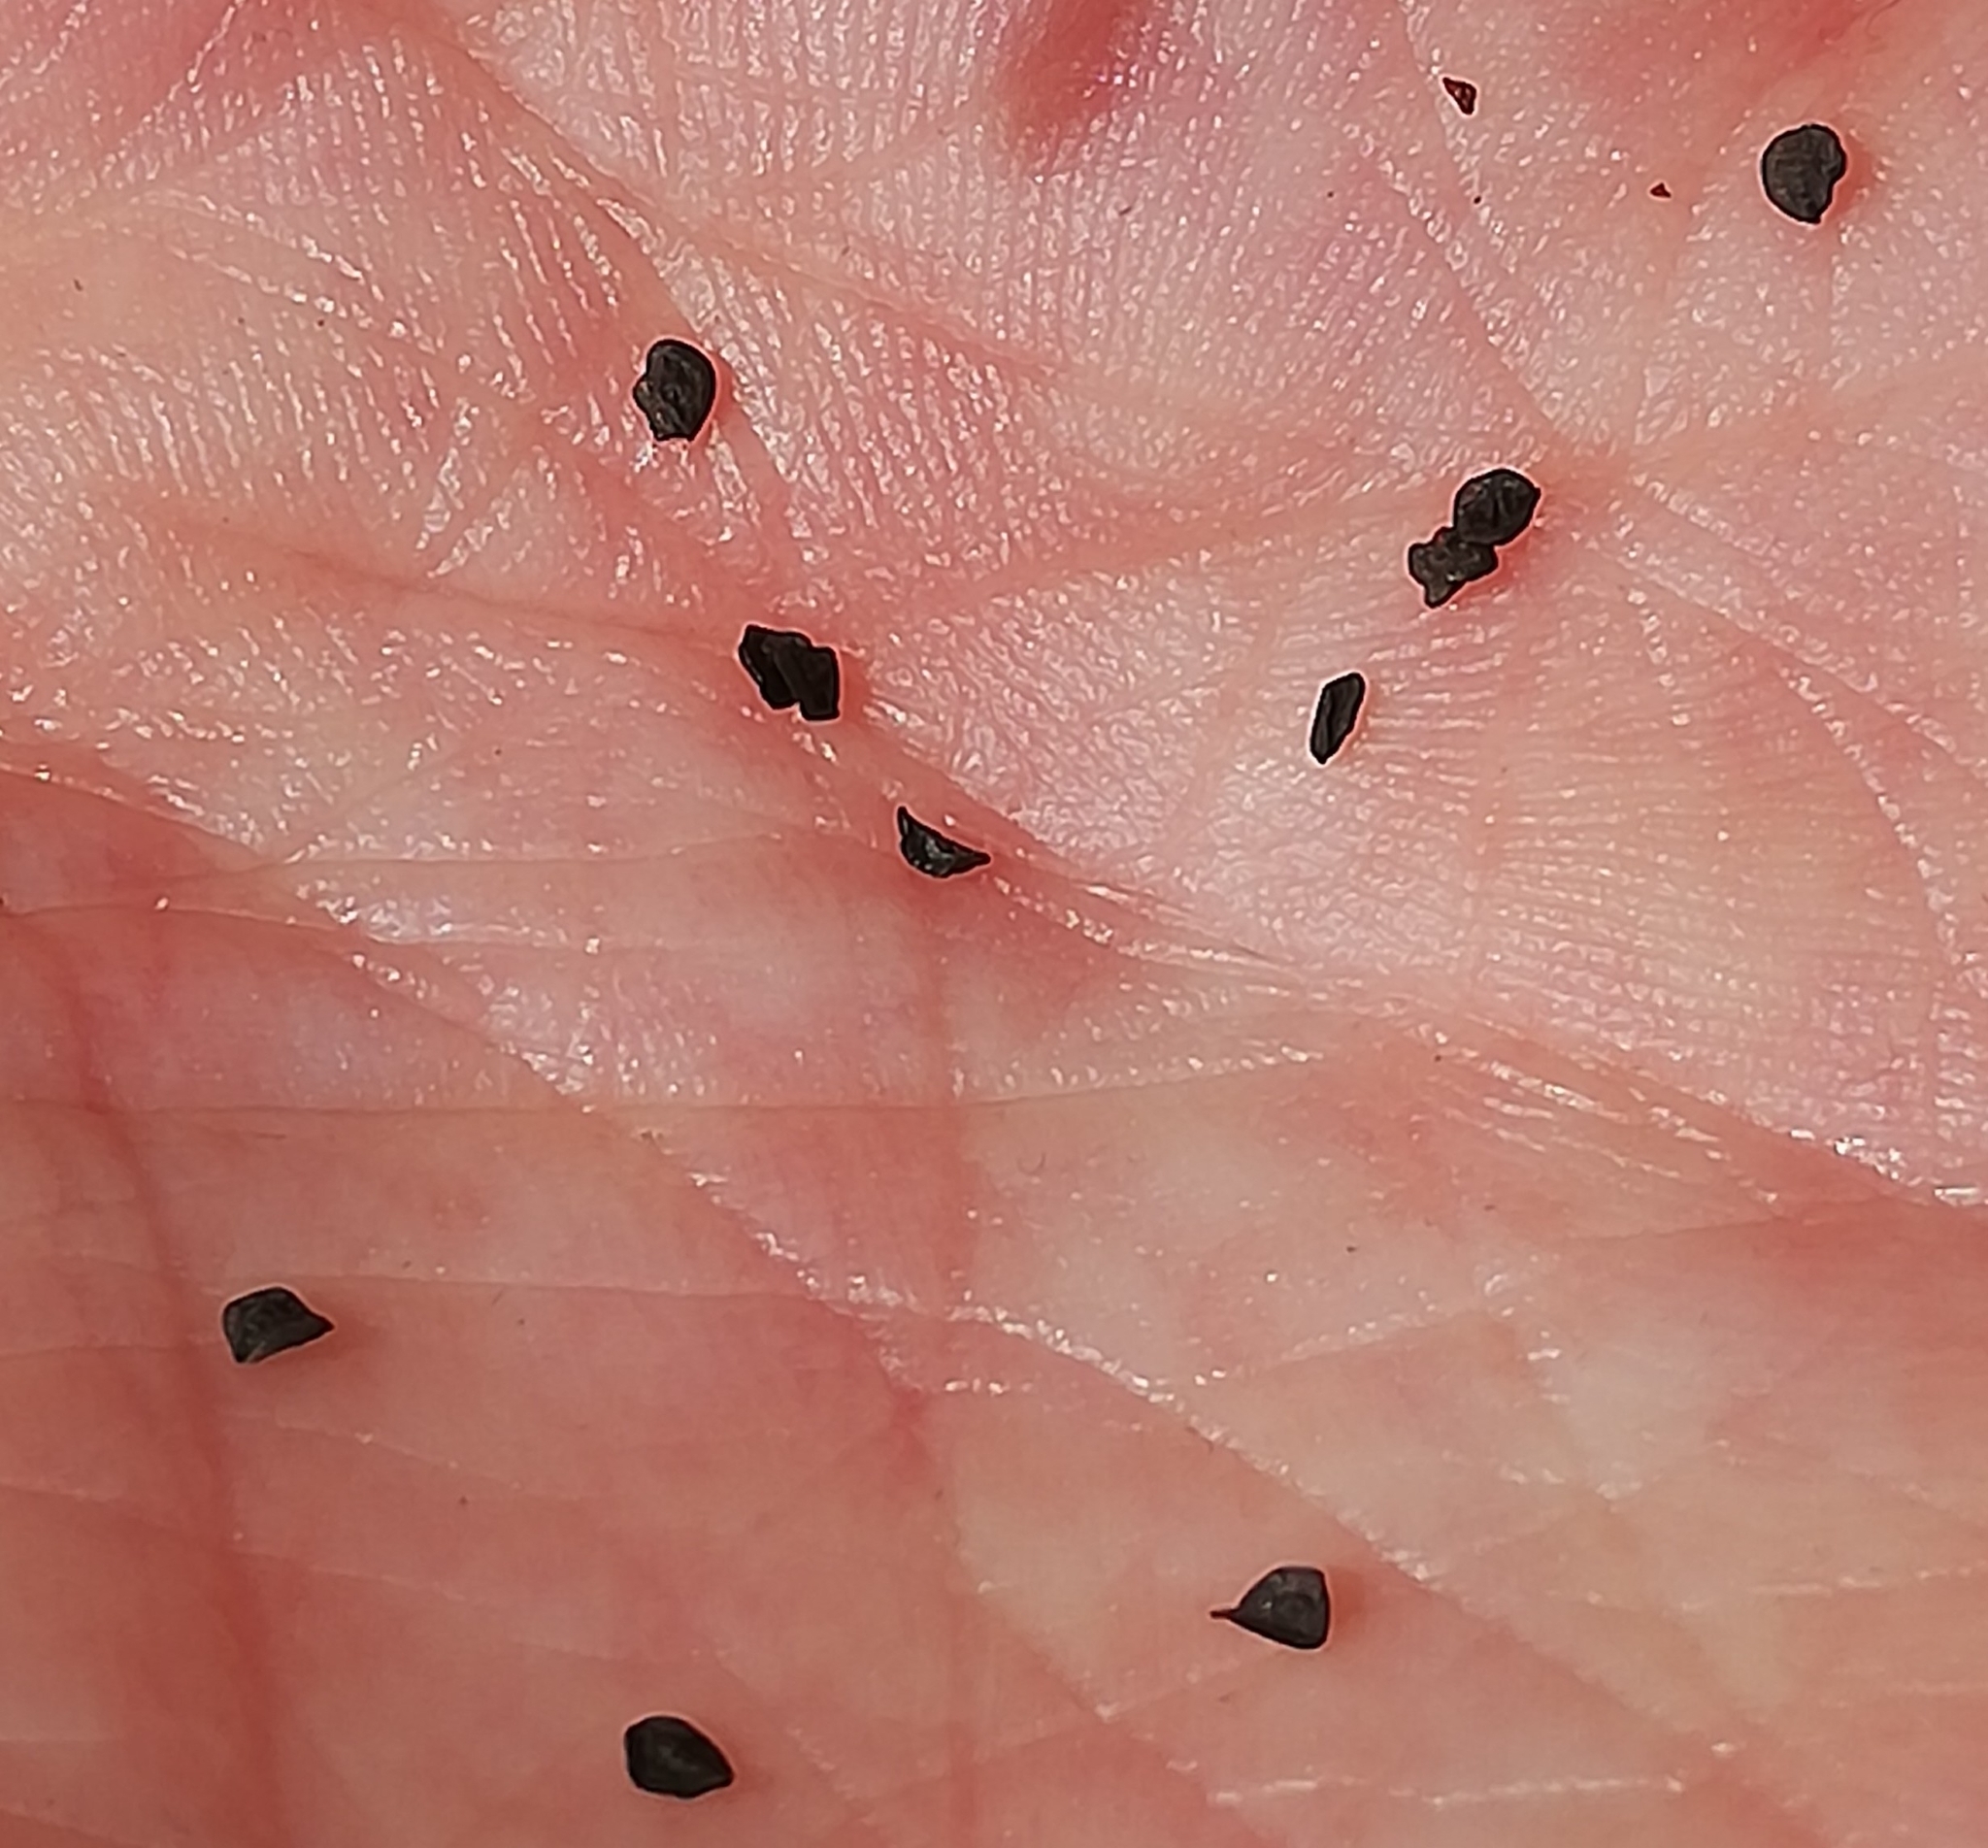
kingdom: Plantae
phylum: Tracheophyta
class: Magnoliopsida
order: Caryophyllales
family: Caryophyllaceae
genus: Dianthus
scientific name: Dianthus carthusianorum
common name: Carthusian pink
